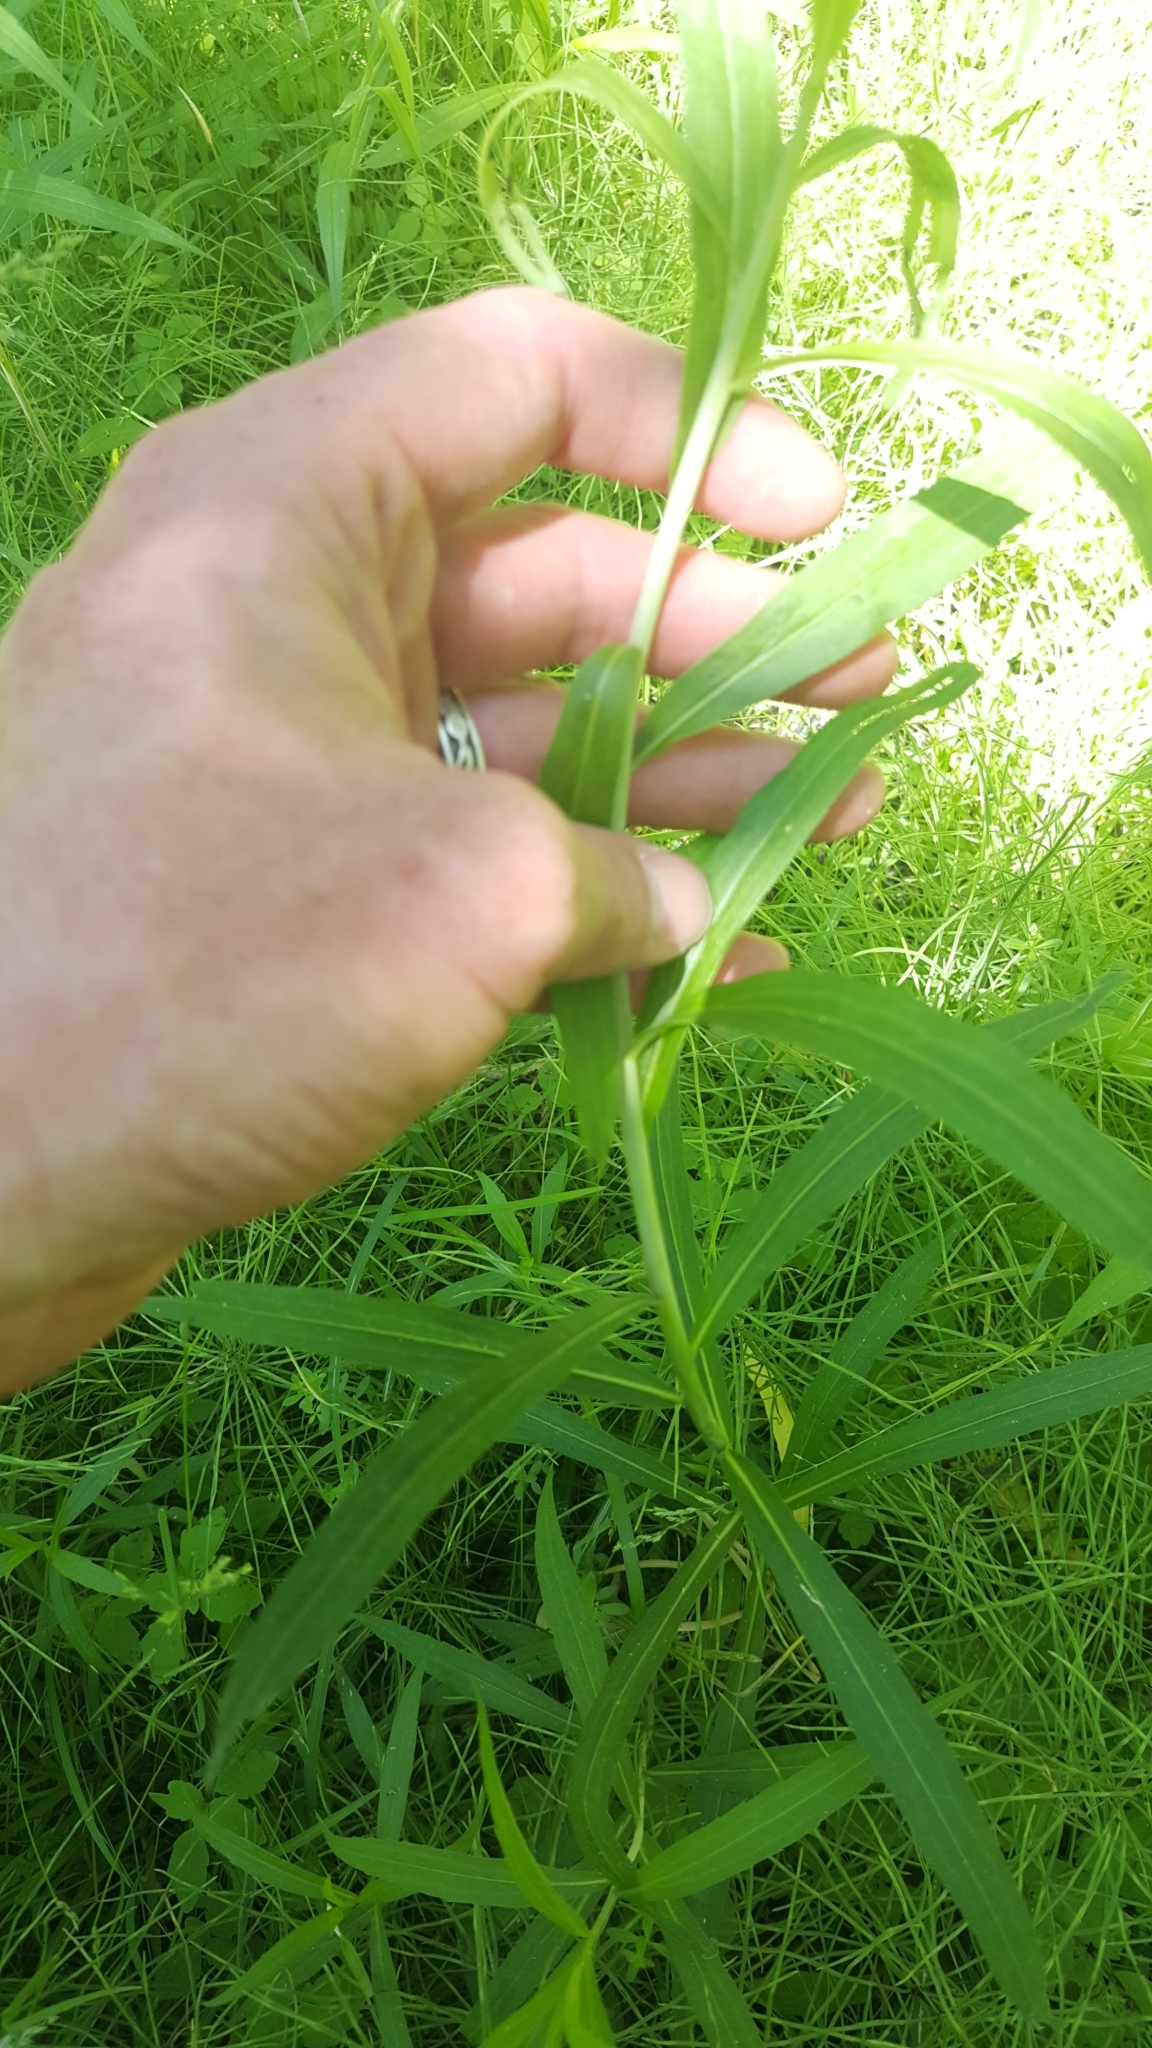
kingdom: Plantae
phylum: Tracheophyta
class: Magnoliopsida
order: Asterales
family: Asteraceae
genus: Solidago
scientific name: Solidago gigantea
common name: Giant goldenrod
